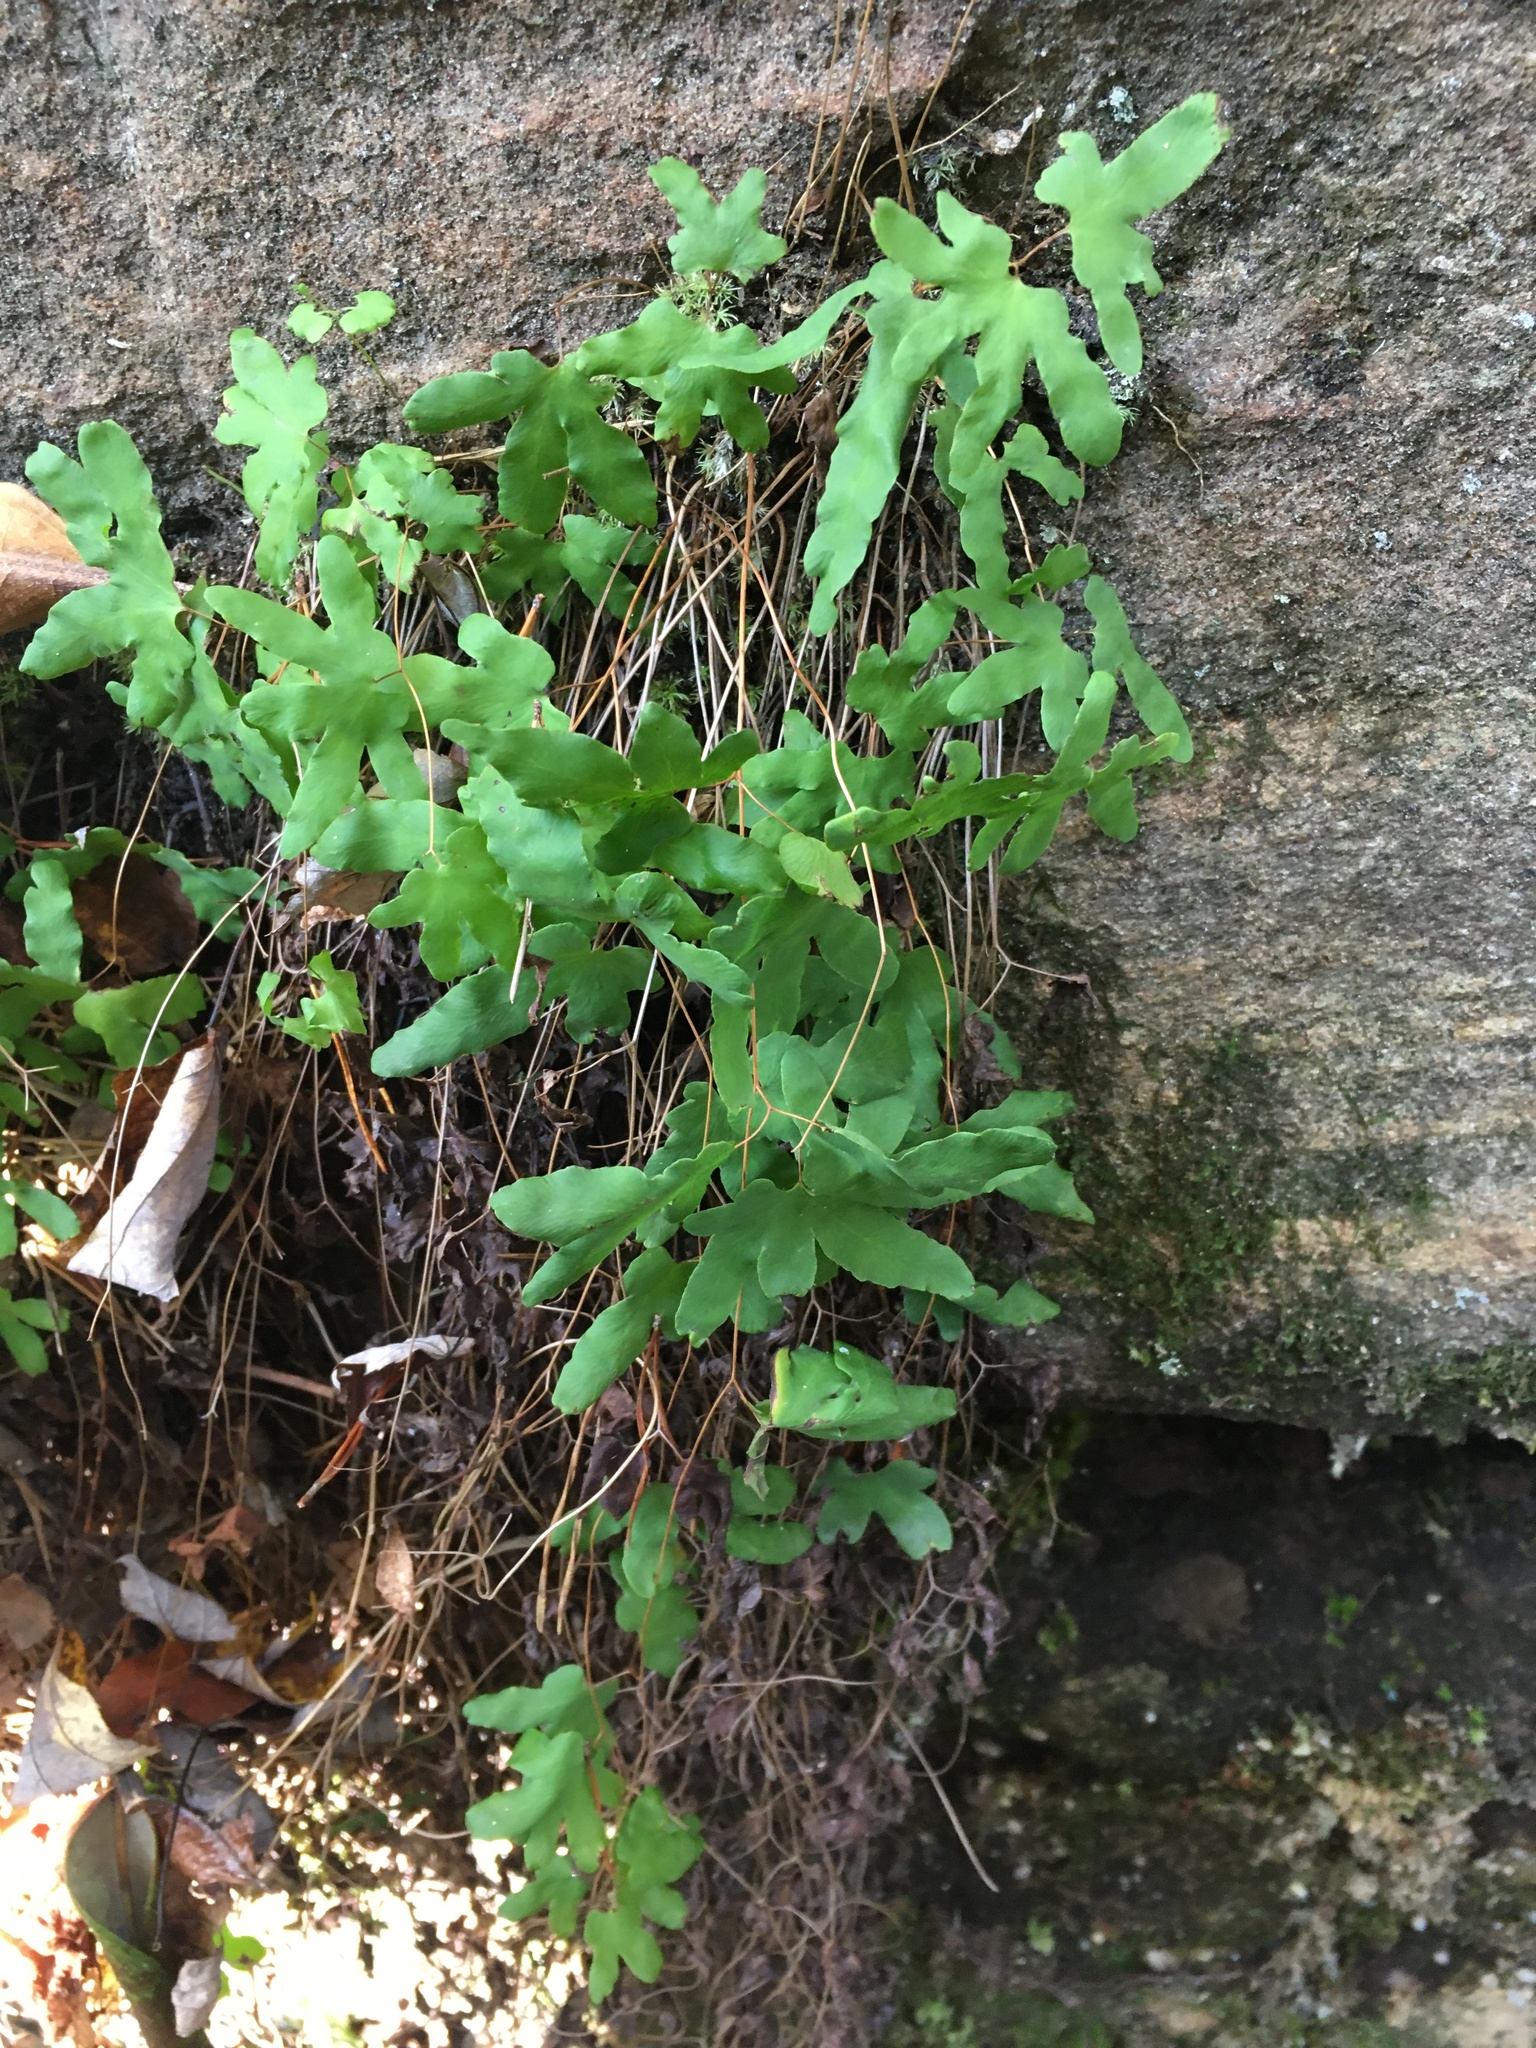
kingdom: Plantae
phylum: Tracheophyta
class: Polypodiopsida
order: Schizaeales
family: Lygodiaceae
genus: Lygodium
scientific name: Lygodium palmatum
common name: American climbing fern
